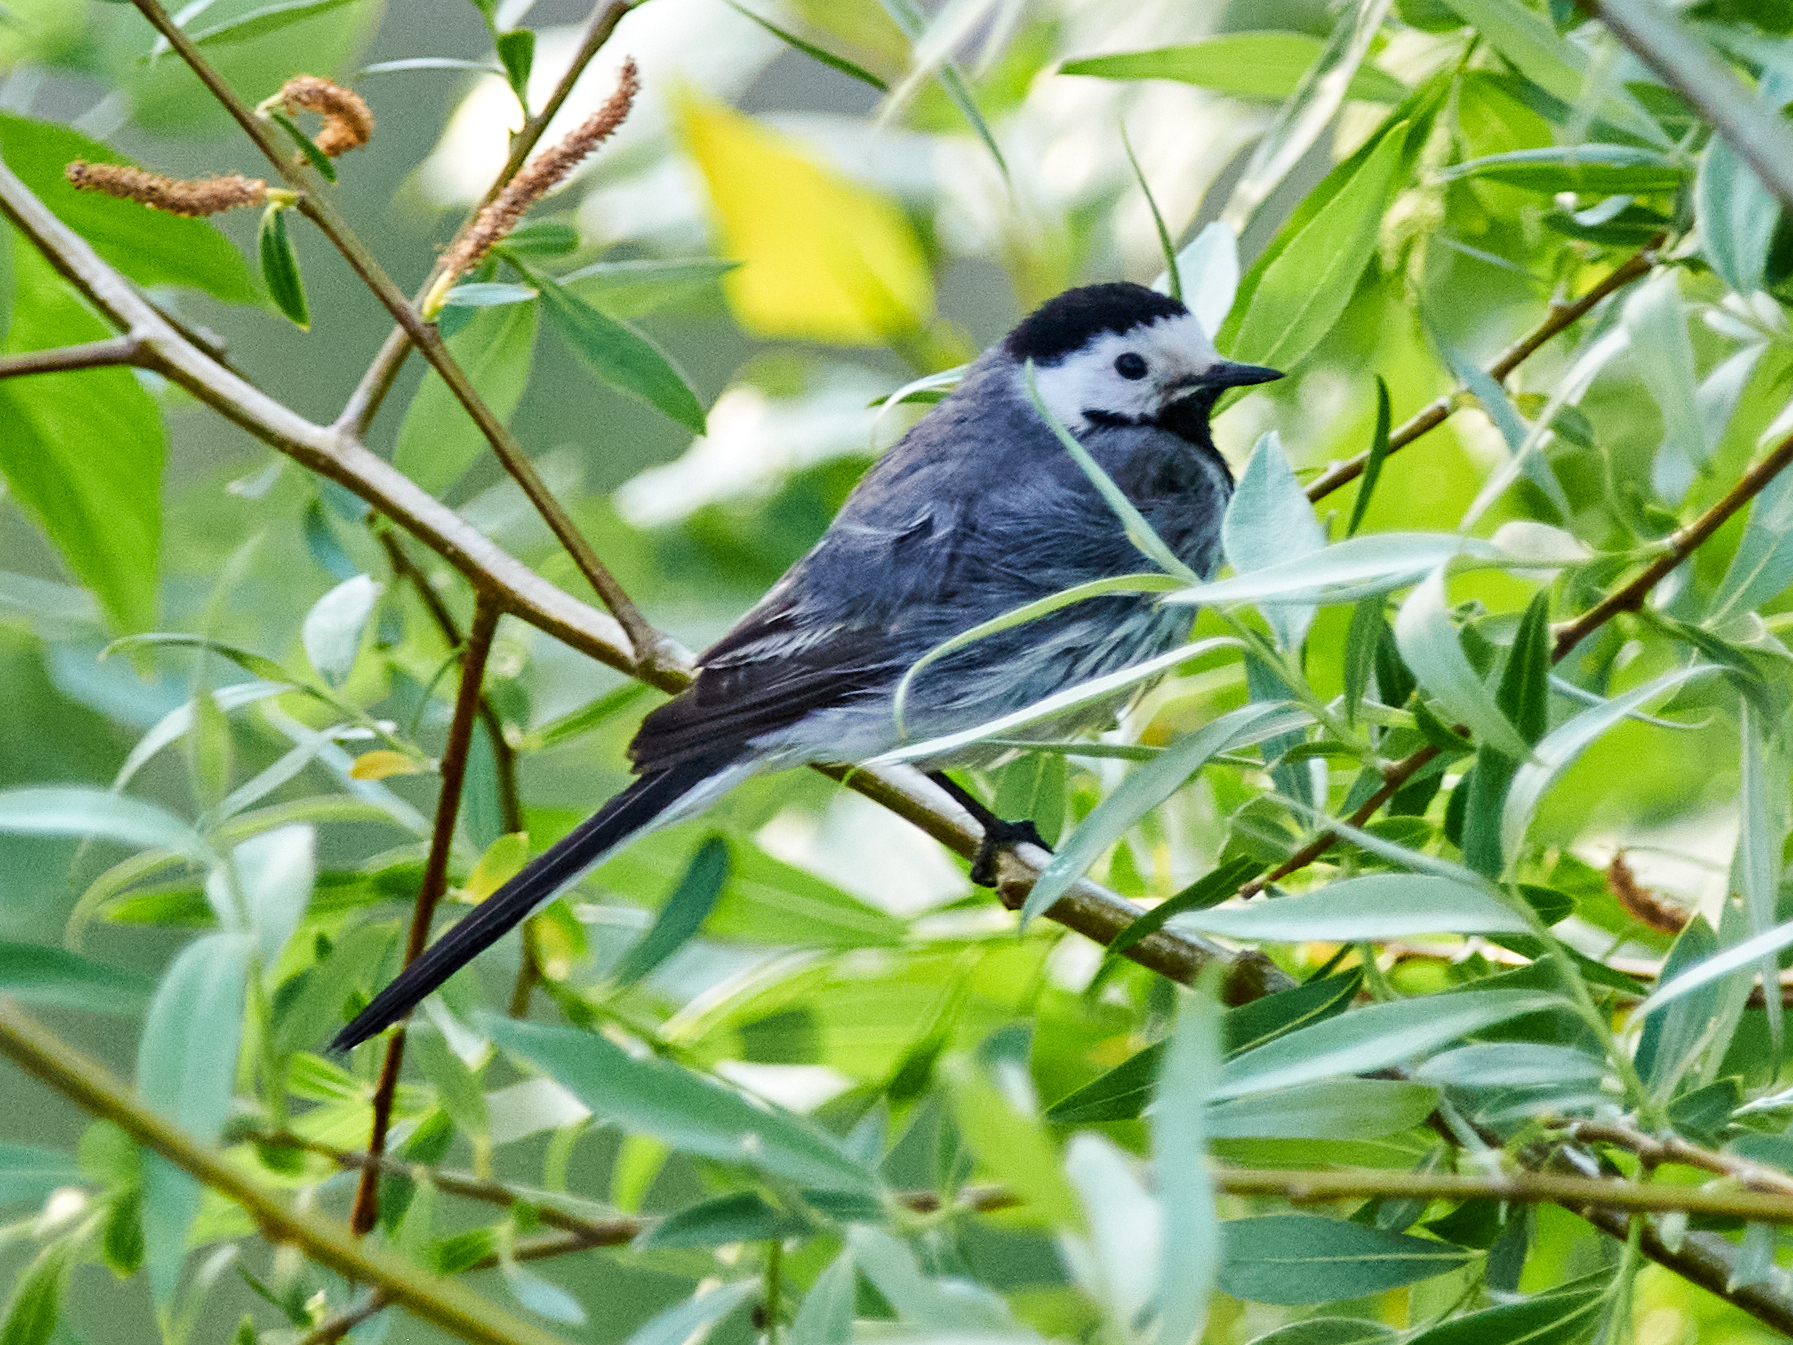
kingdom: Animalia
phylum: Chordata
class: Aves
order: Passeriformes
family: Motacillidae
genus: Motacilla
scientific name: Motacilla alba
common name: White wagtail
